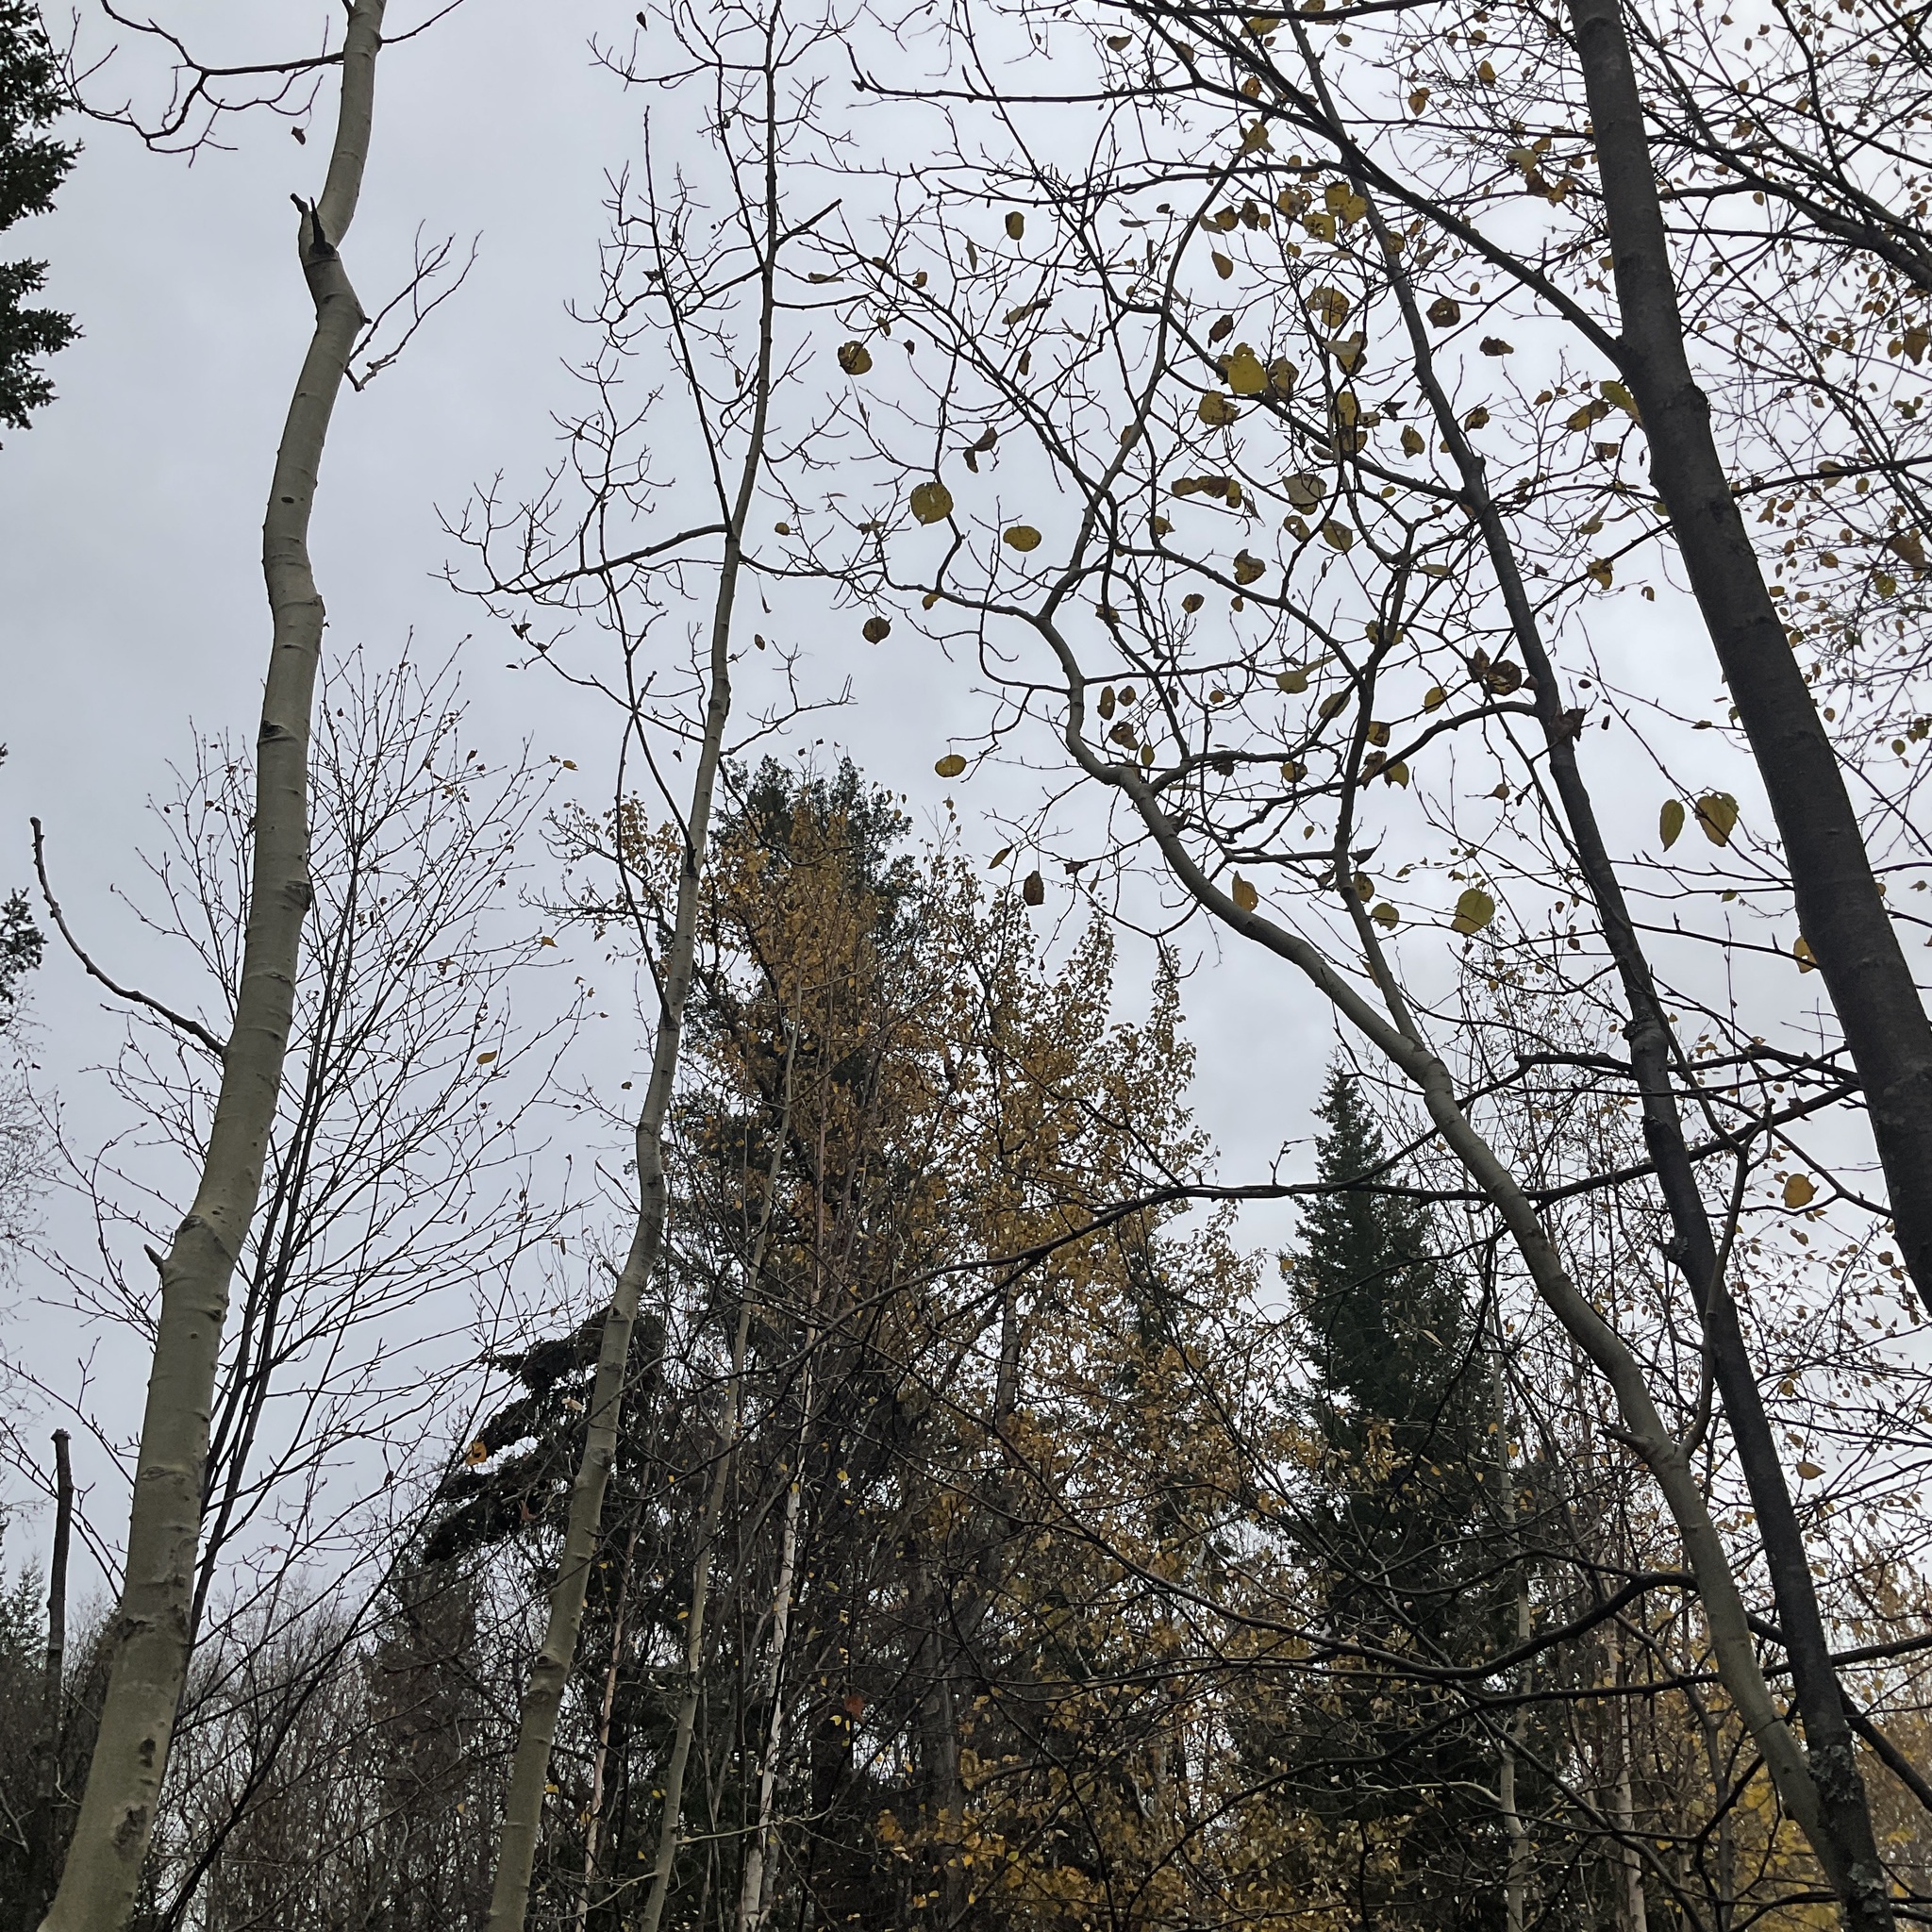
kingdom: Plantae
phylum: Tracheophyta
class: Magnoliopsida
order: Malpighiales
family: Salicaceae
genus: Populus
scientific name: Populus tremuloides
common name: Quaking aspen
